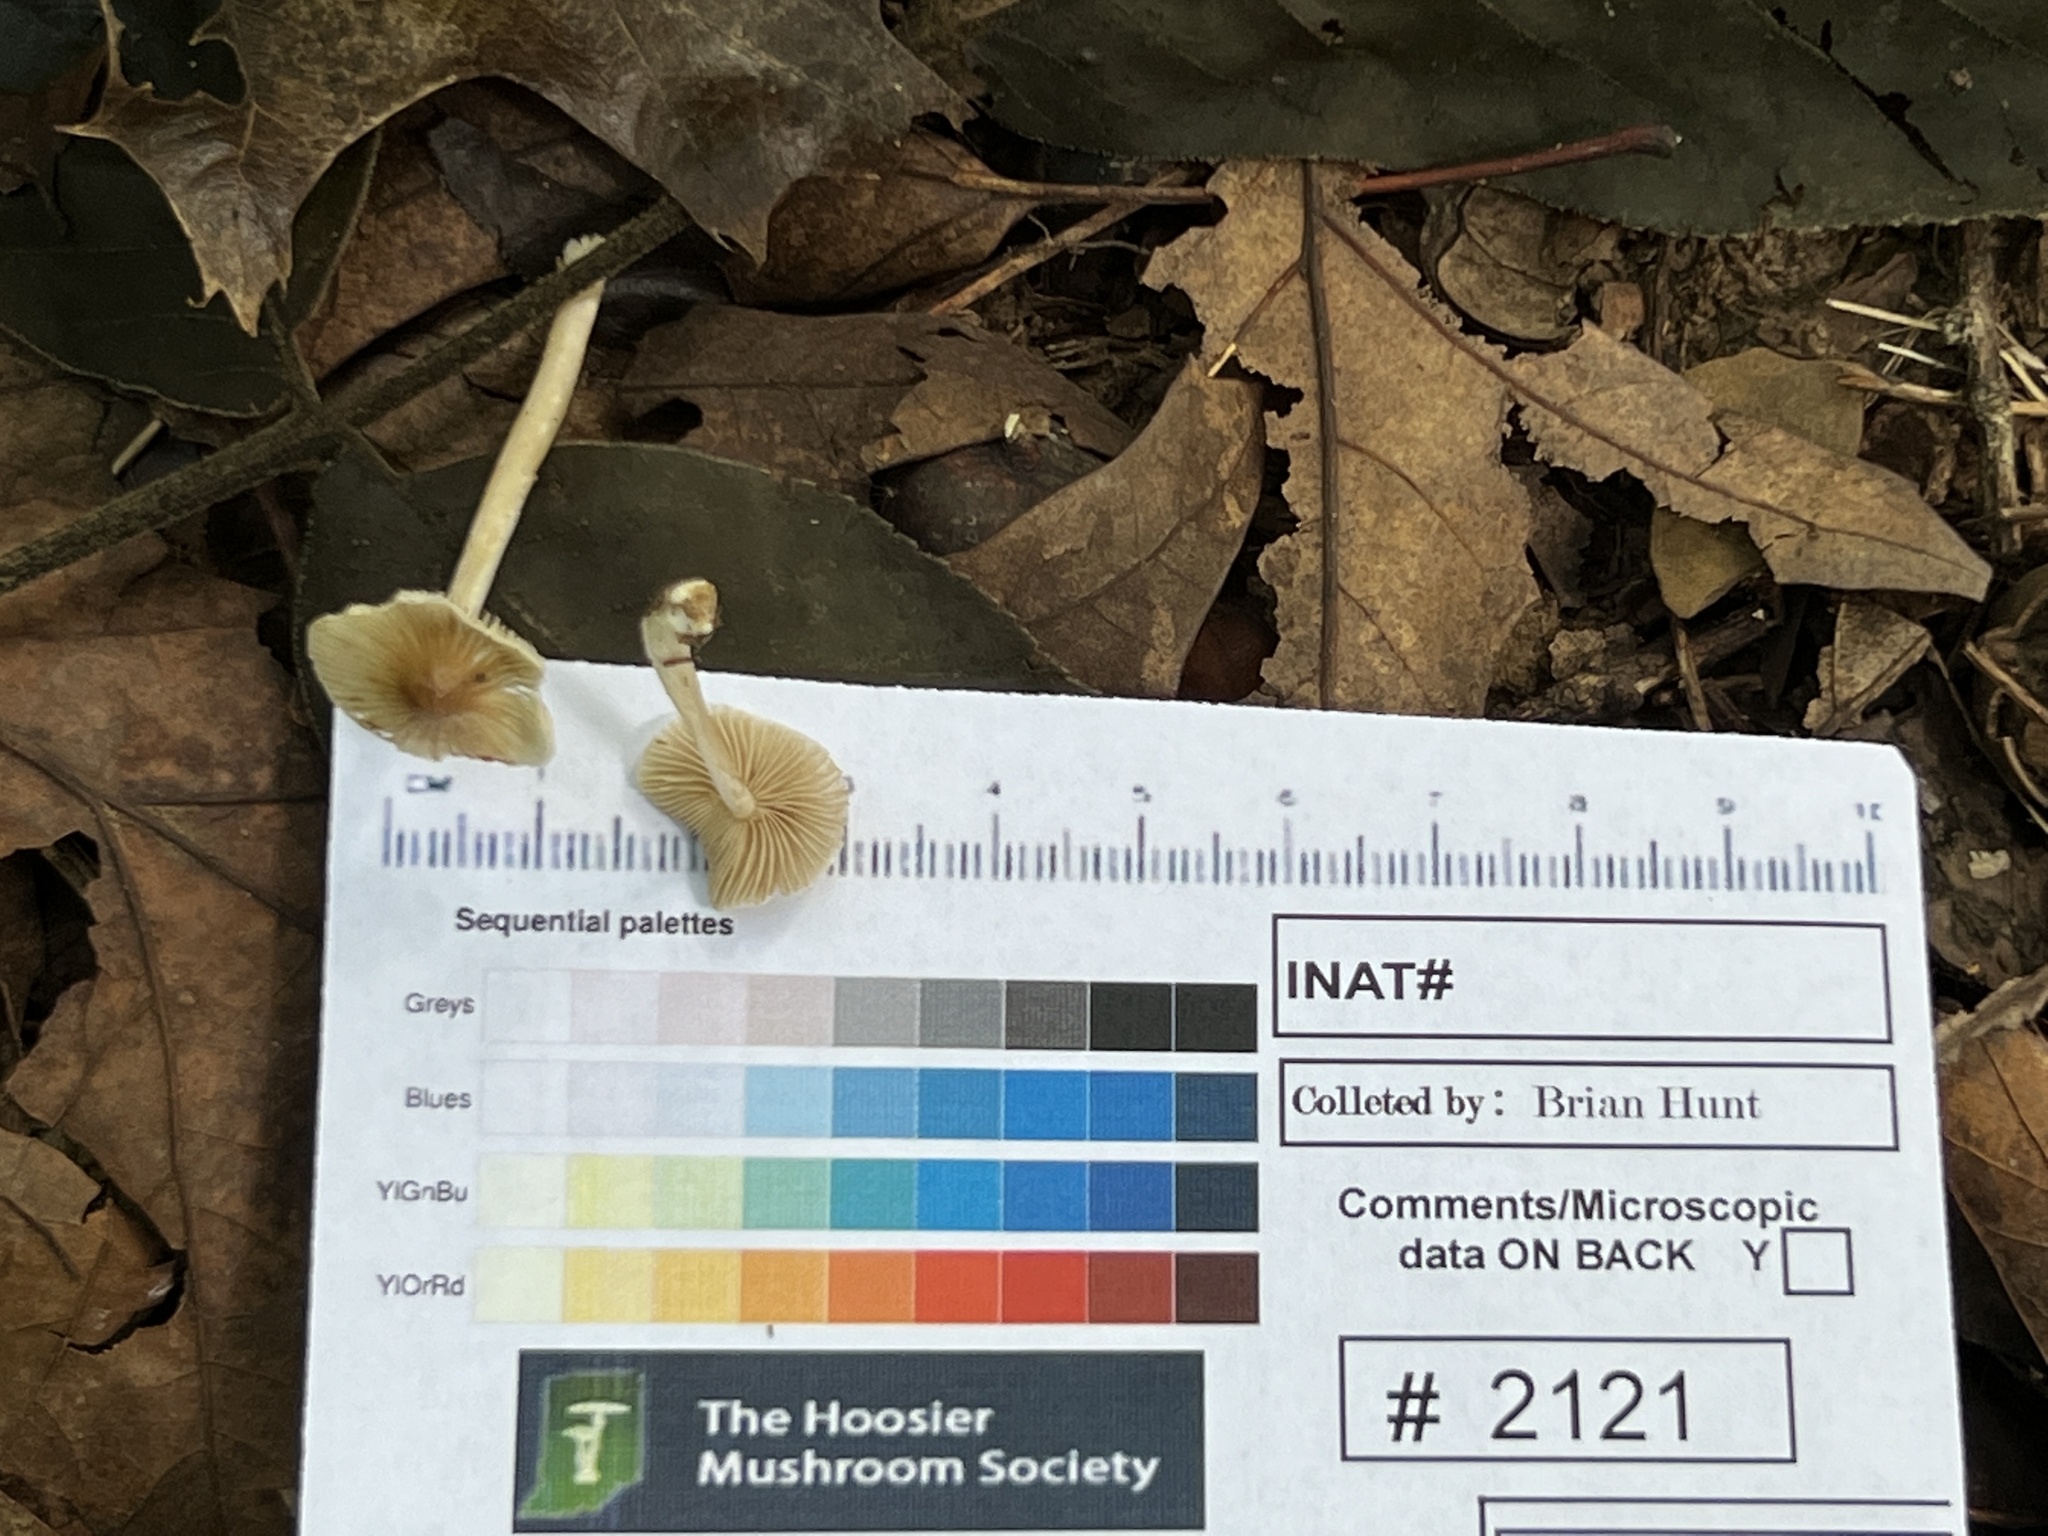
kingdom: Fungi
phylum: Basidiomycota
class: Agaricomycetes
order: Agaricales
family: Inocybaceae
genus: Pseudosperma
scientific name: Pseudosperma friabile
